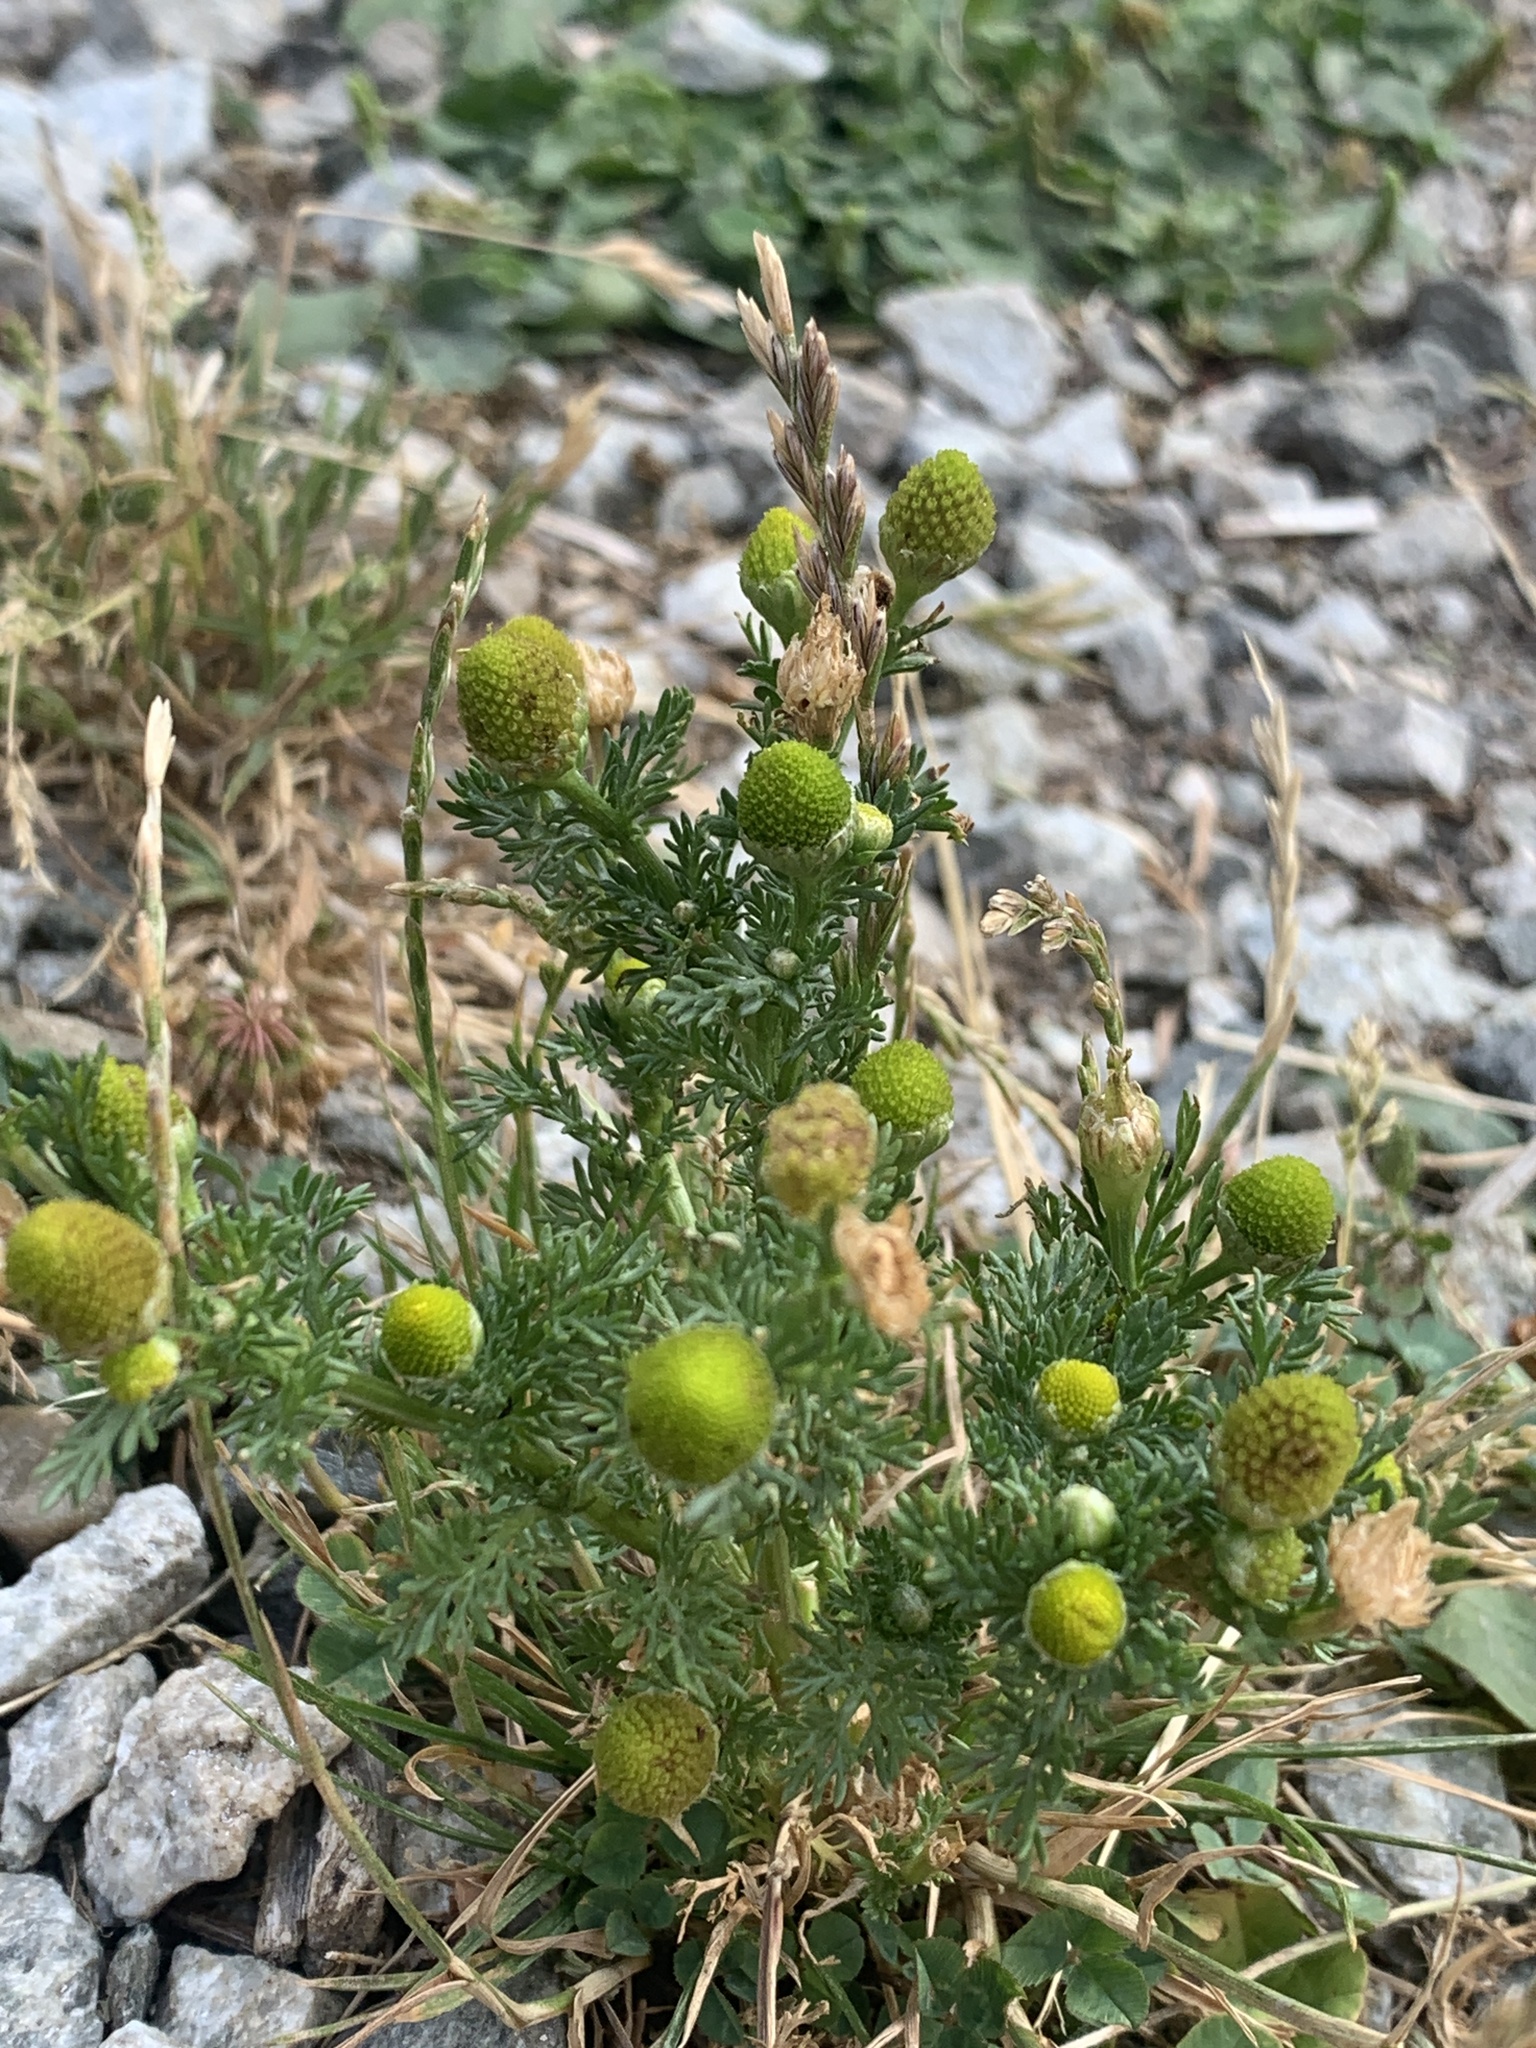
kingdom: Plantae
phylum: Tracheophyta
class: Magnoliopsida
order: Asterales
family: Asteraceae
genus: Matricaria
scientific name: Matricaria discoidea
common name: Disc mayweed
